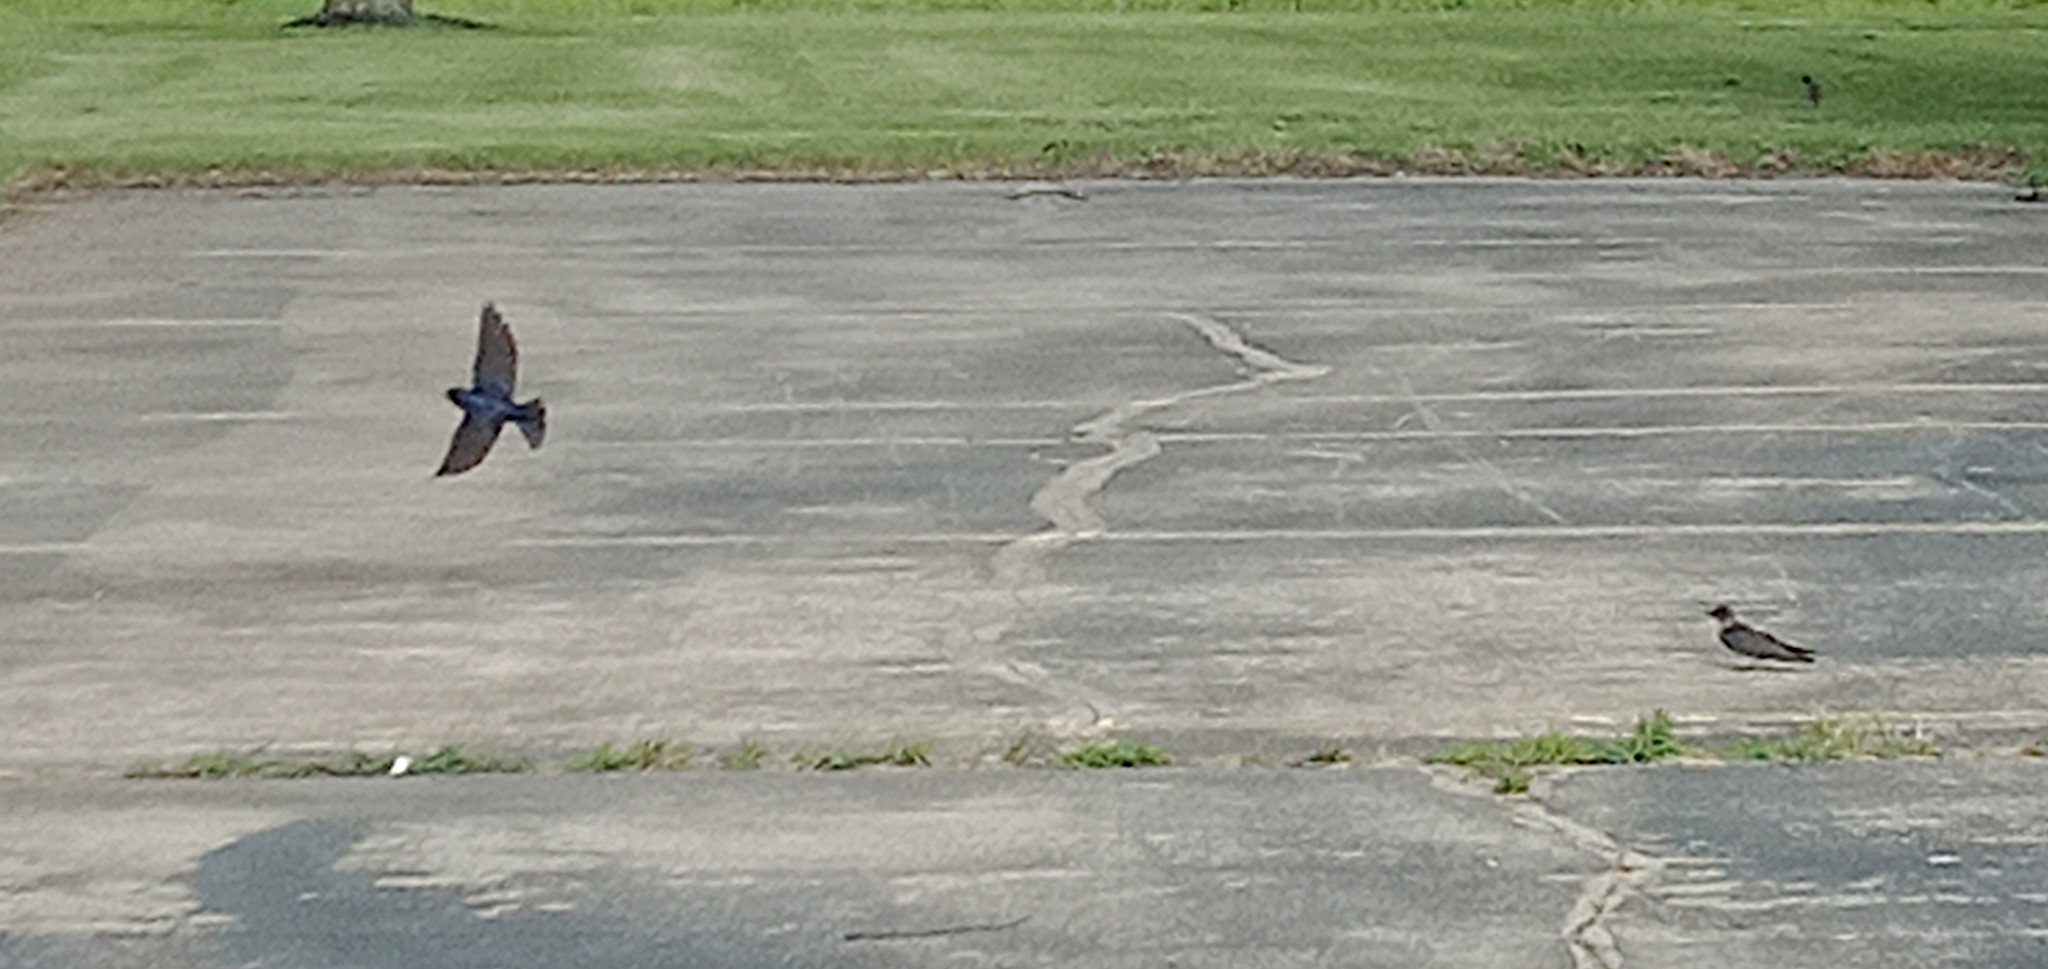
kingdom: Animalia
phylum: Chordata
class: Aves
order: Passeriformes
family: Hirundinidae
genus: Progne
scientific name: Progne subis
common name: Purple martin
